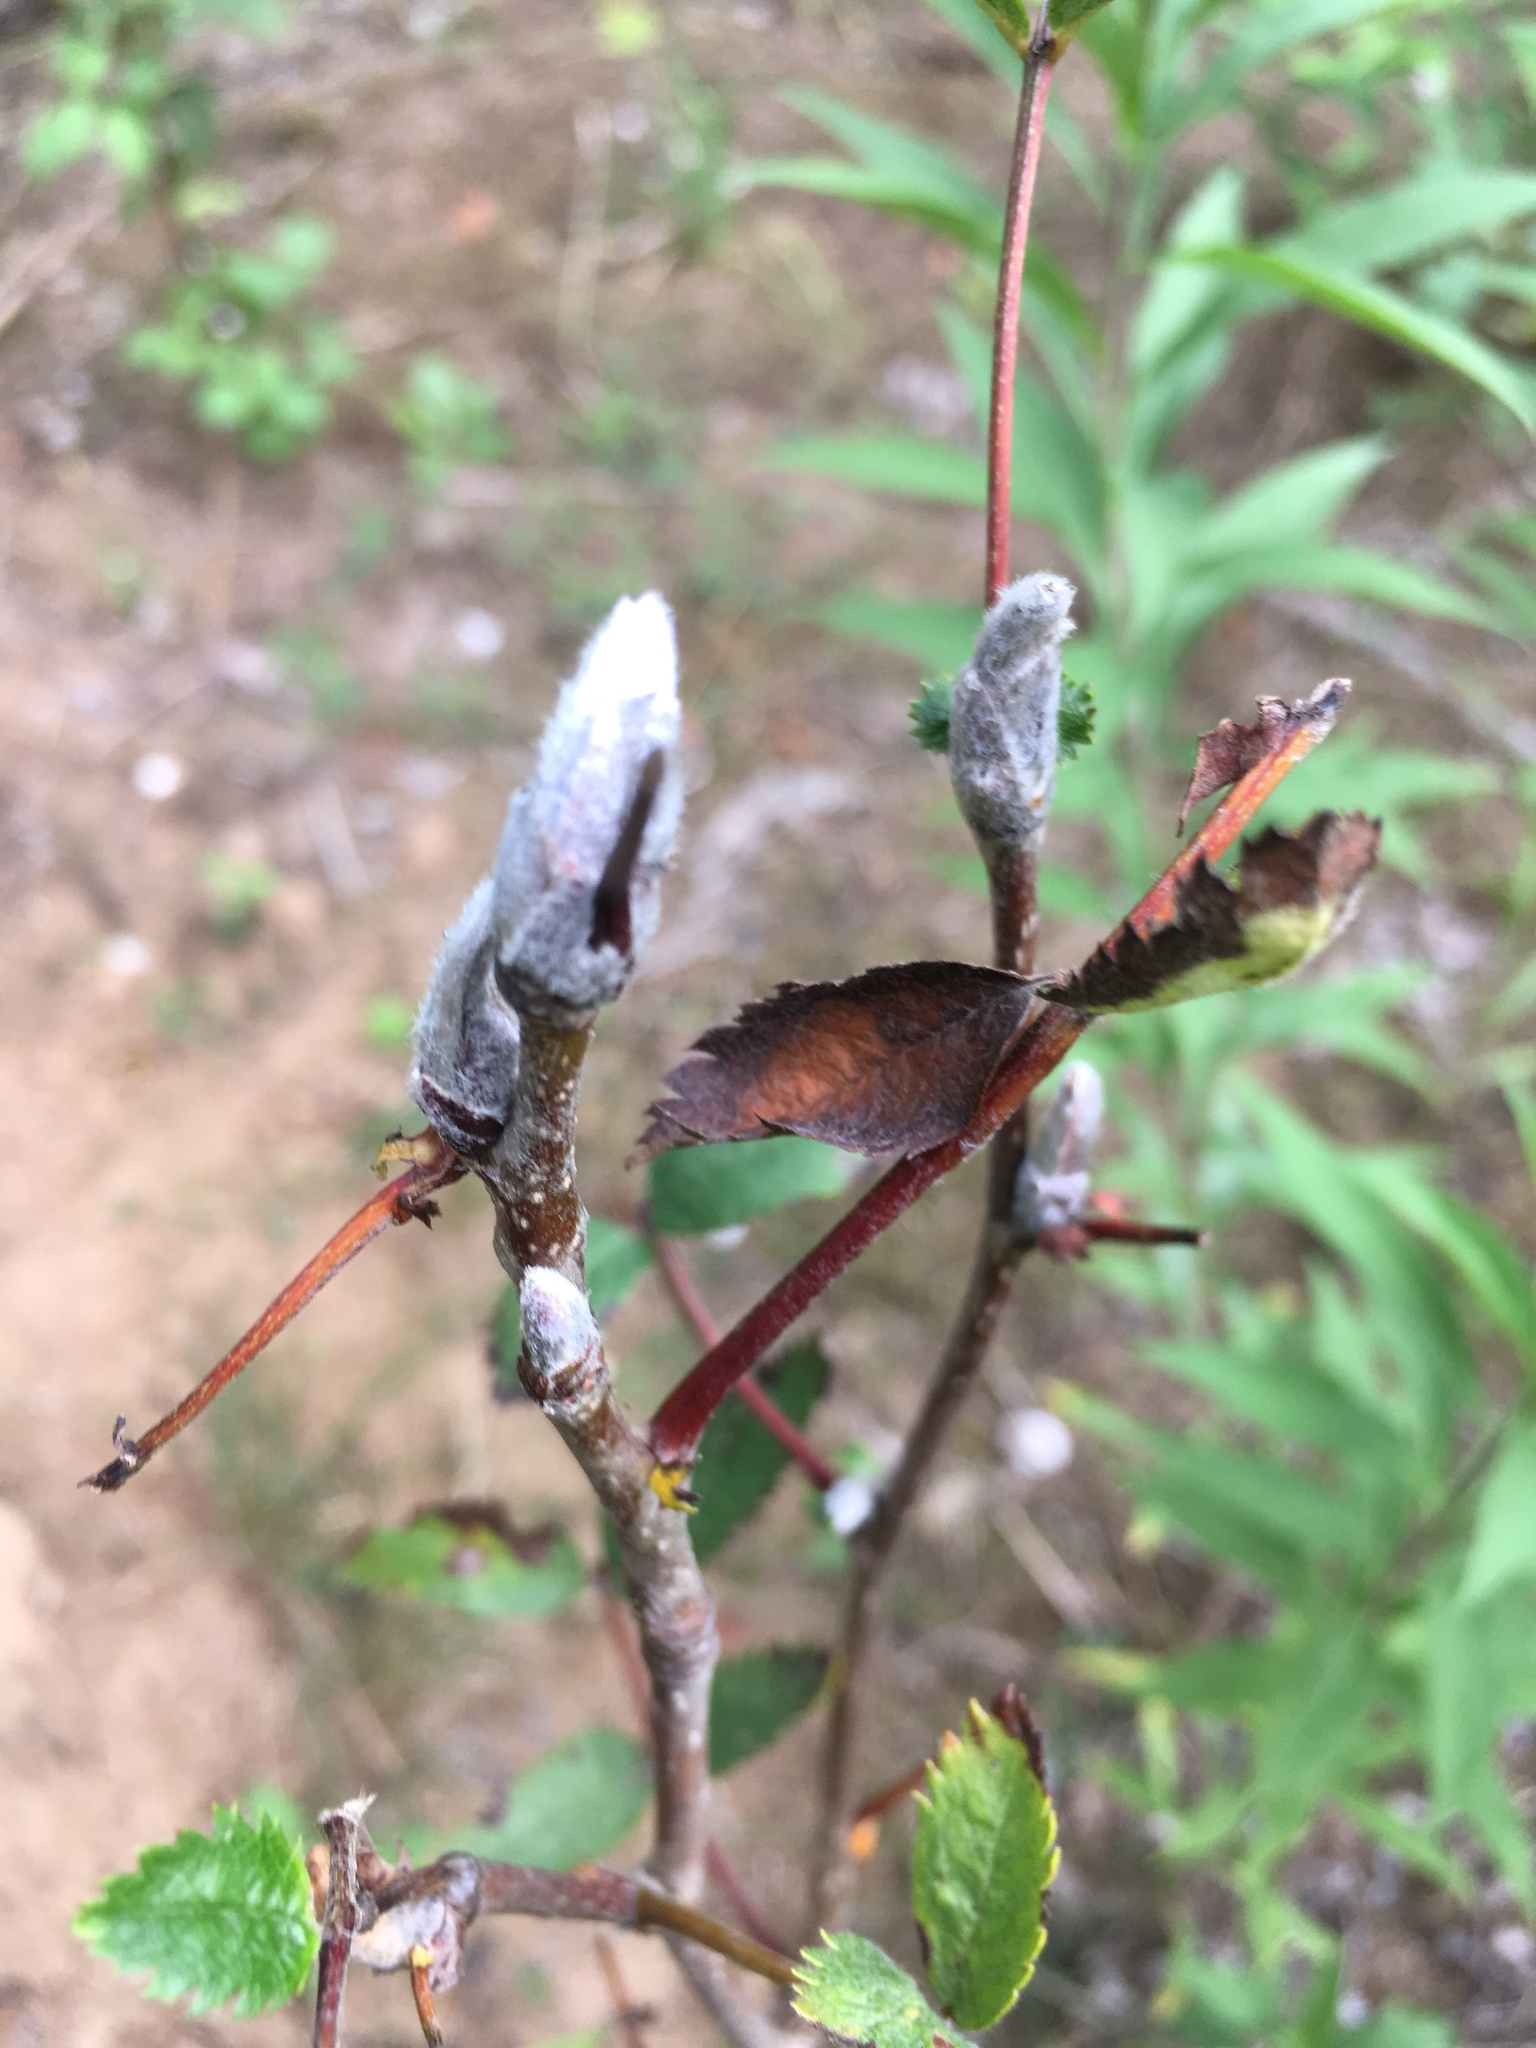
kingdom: Plantae
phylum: Tracheophyta
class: Magnoliopsida
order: Rosales
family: Rosaceae
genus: Sorbus
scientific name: Sorbus aucuparia
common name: Rowan
